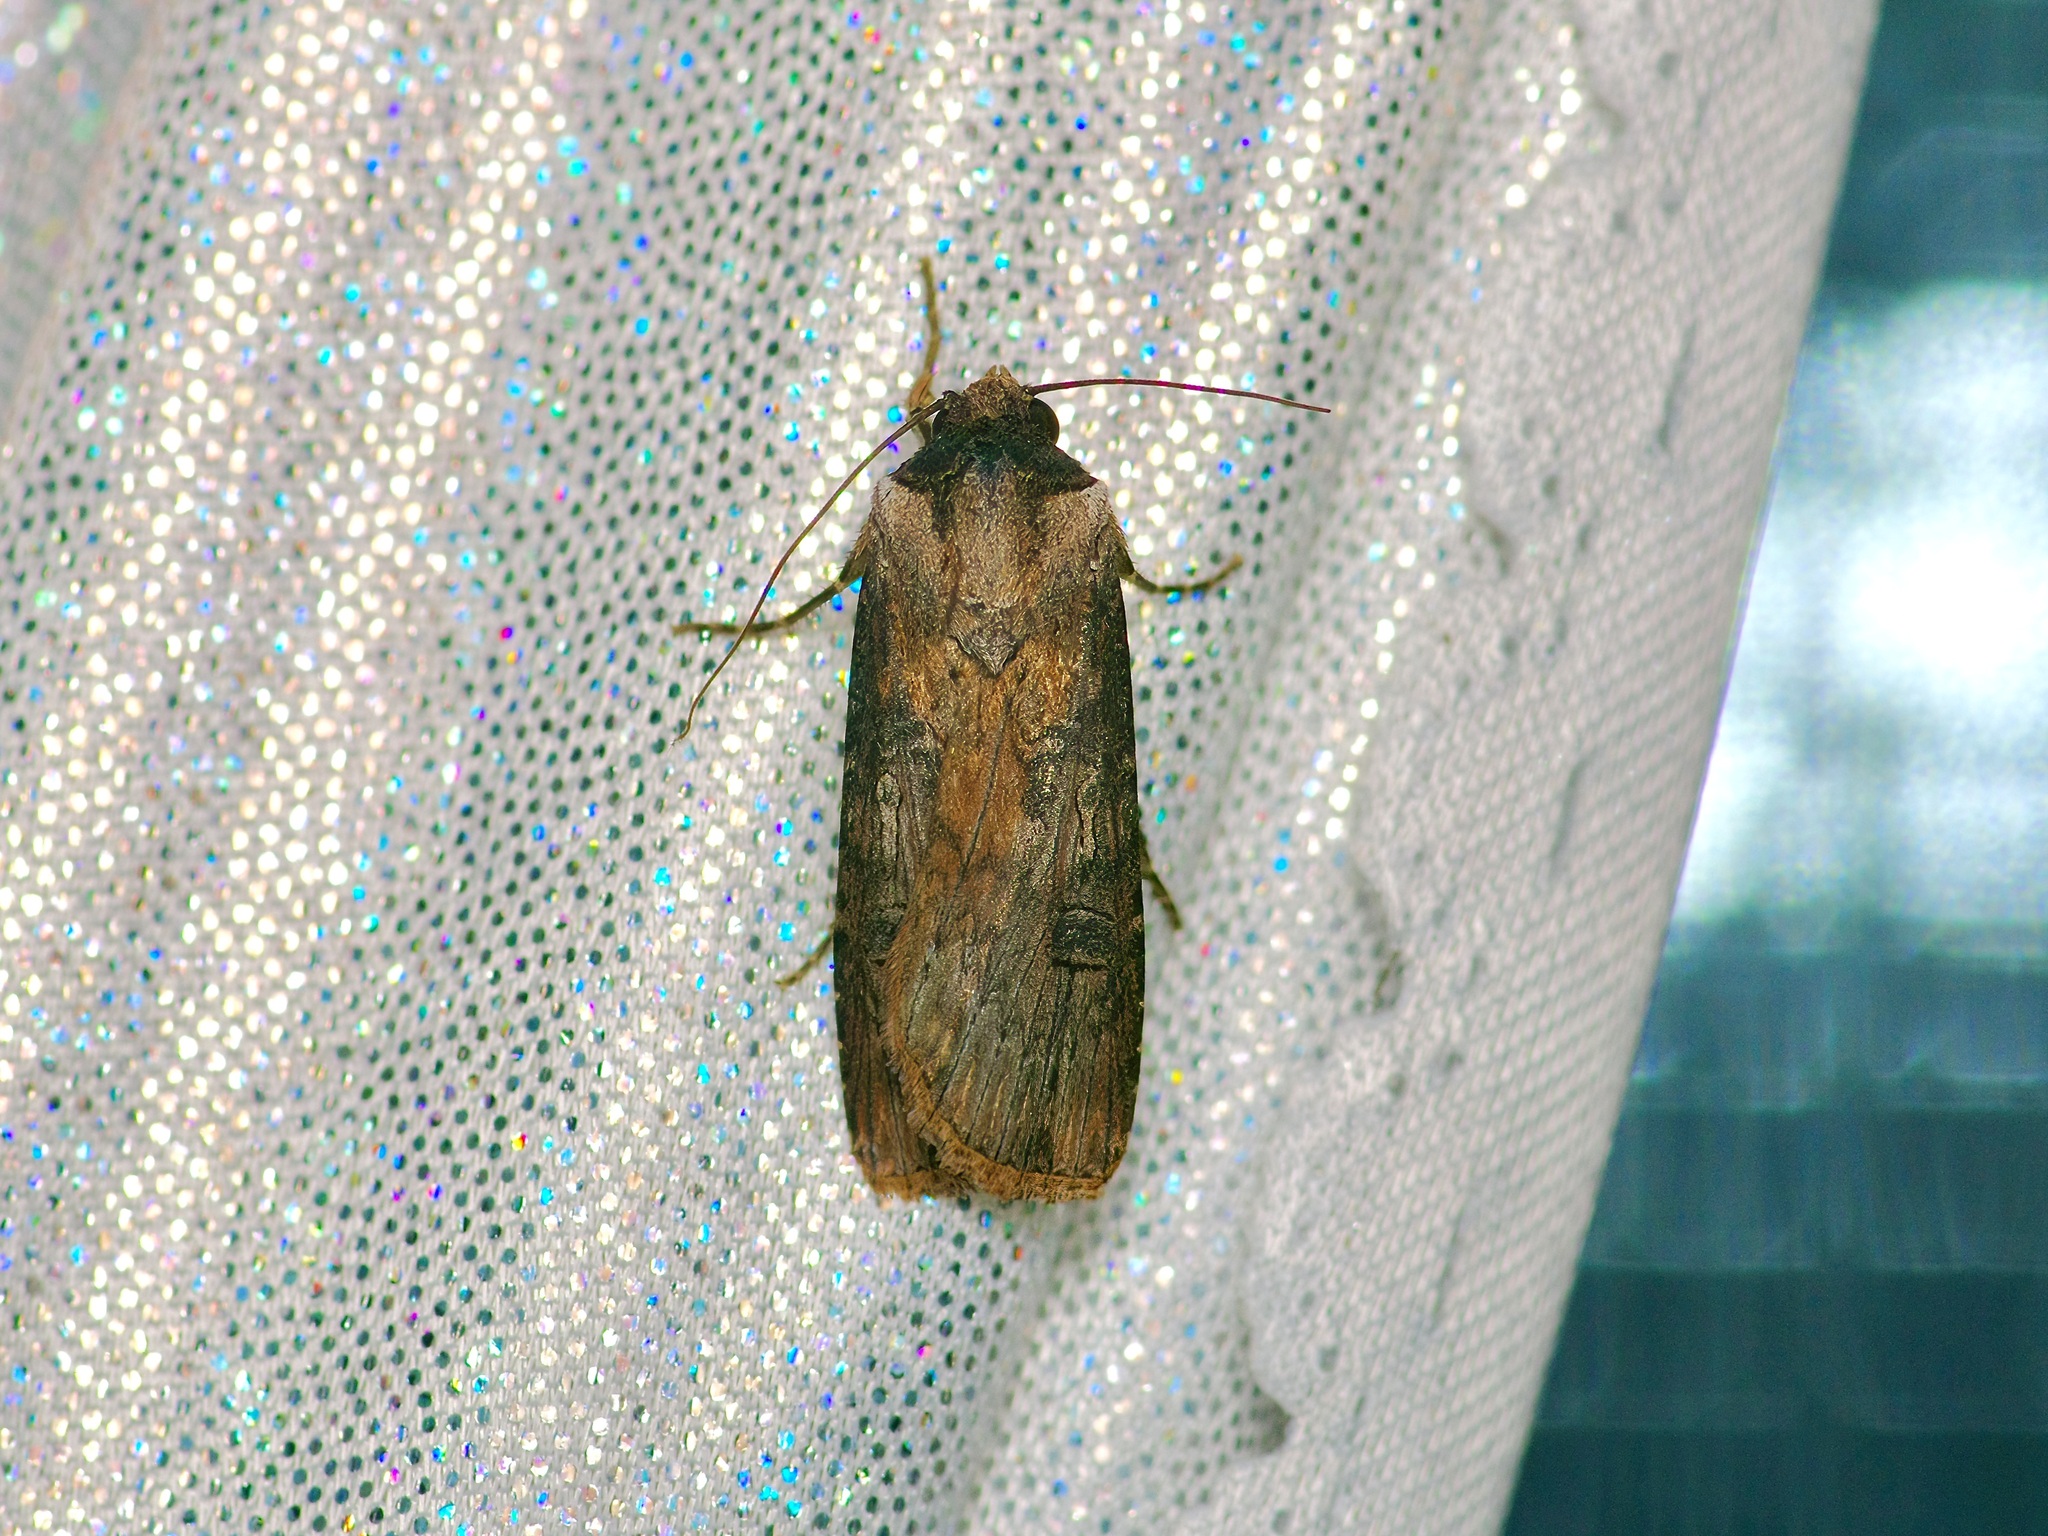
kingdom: Animalia
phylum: Arthropoda
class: Insecta
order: Lepidoptera
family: Noctuidae
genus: Agrotis
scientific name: Agrotis malefida
